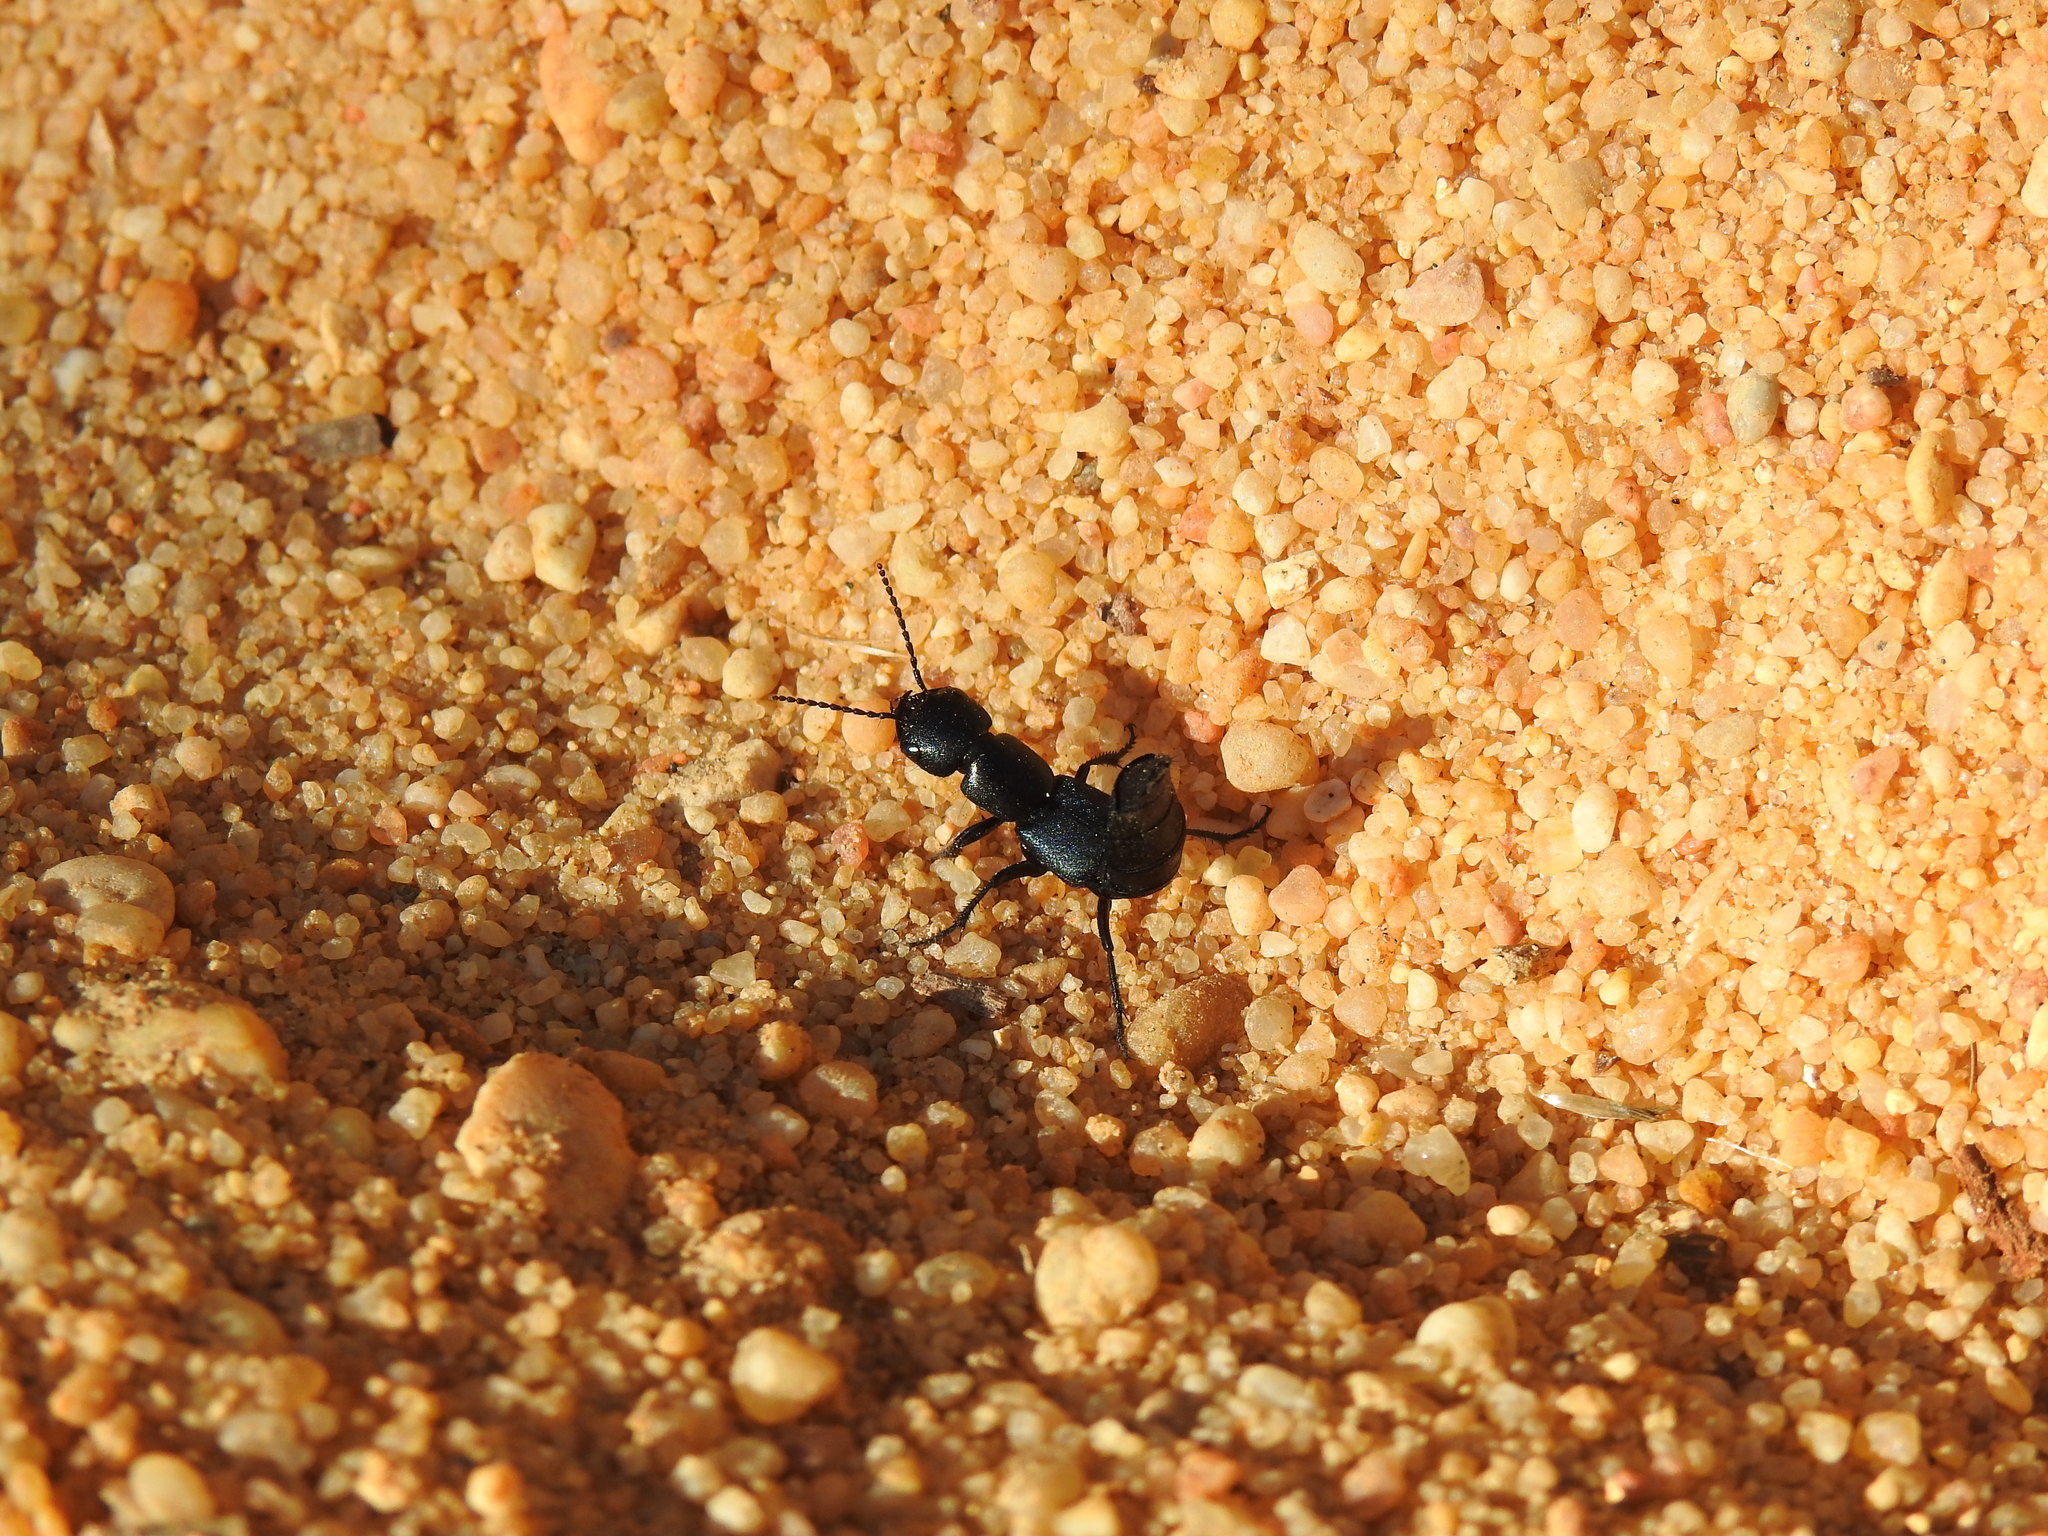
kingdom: Animalia
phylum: Arthropoda
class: Insecta
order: Coleoptera
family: Staphylinidae
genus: Ocypus
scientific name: Ocypus ophthalmicus
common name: Blue rove-beetle
